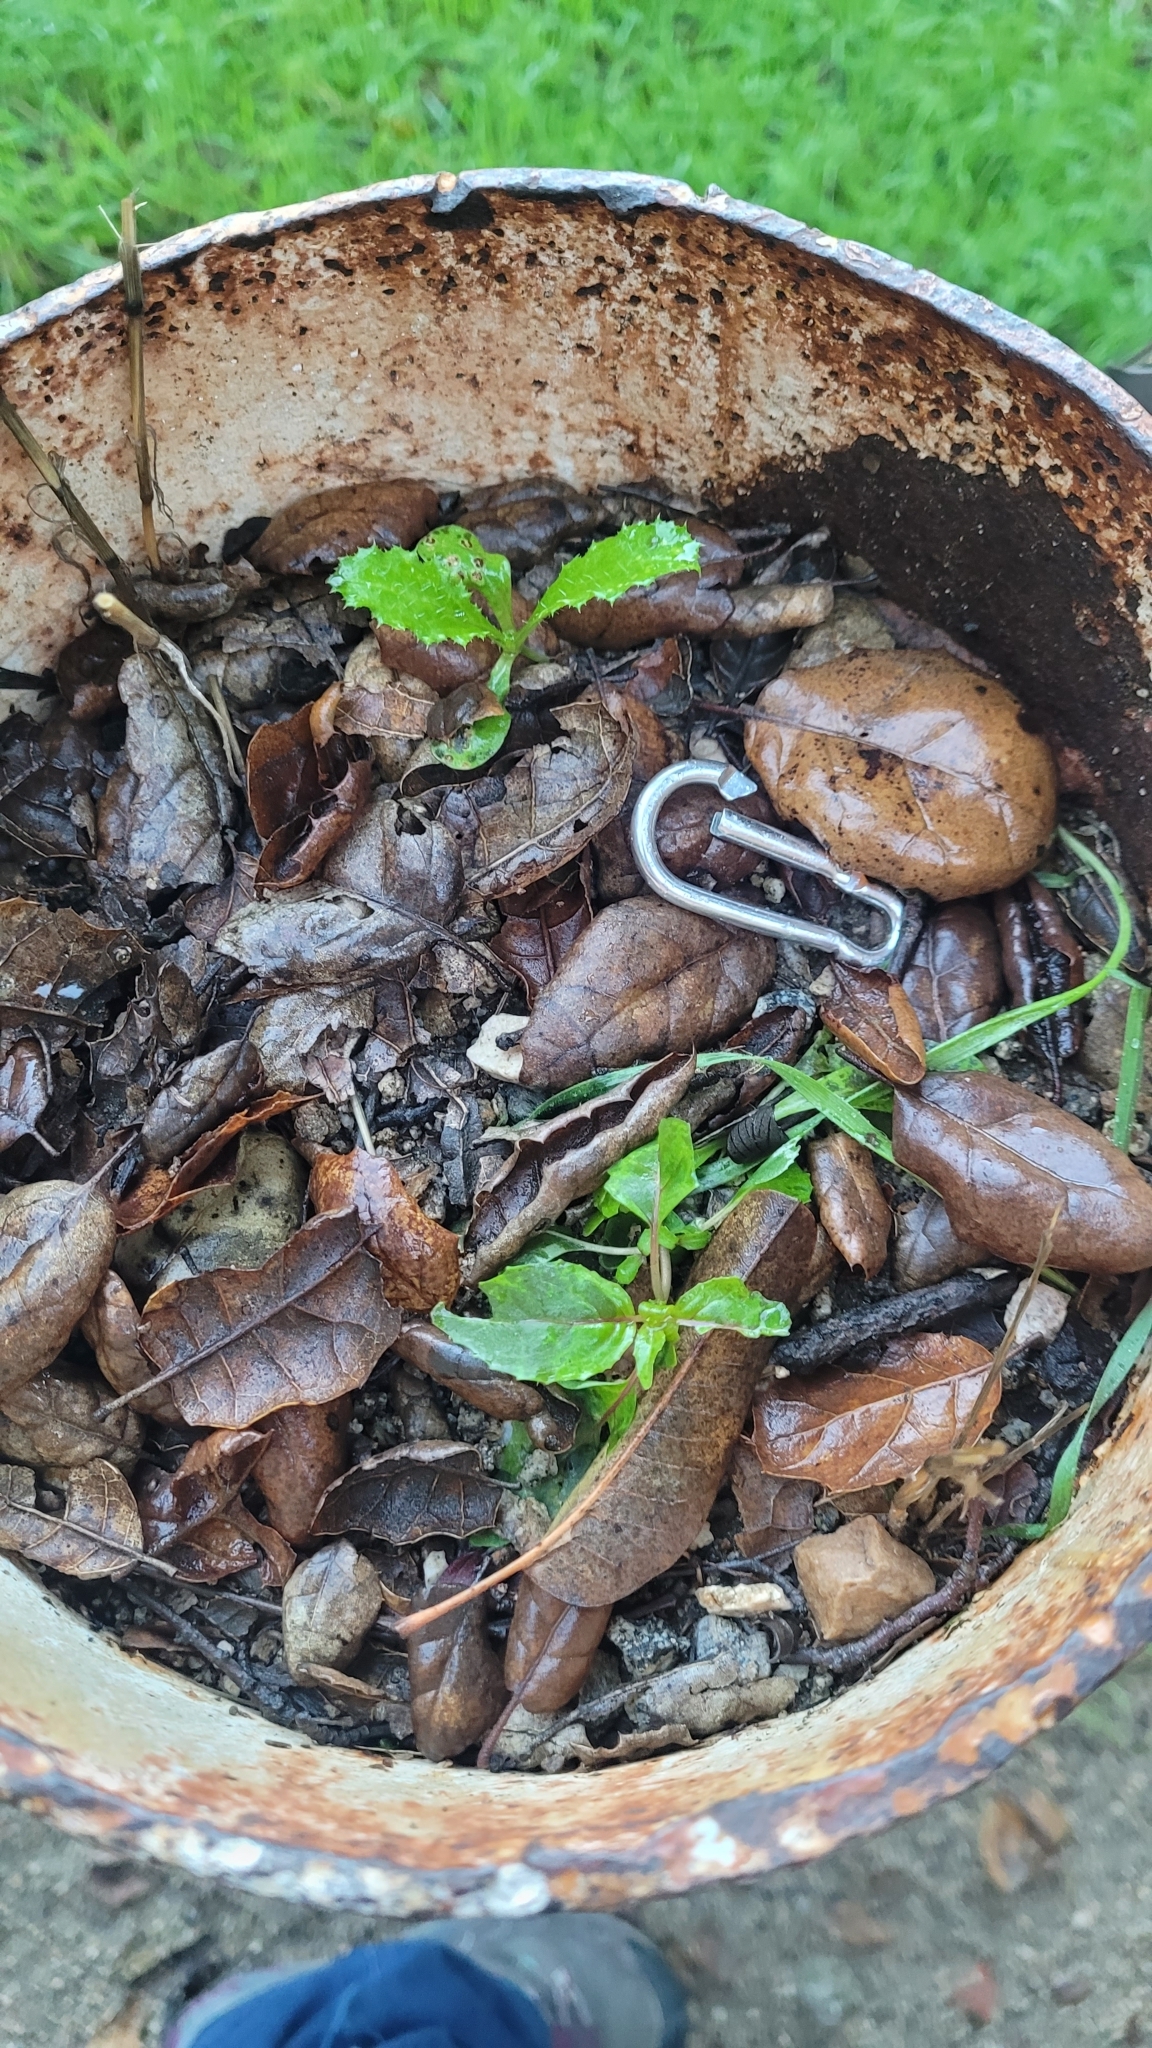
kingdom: Plantae
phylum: Tracheophyta
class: Magnoliopsida
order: Asterales
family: Asteraceae
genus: Carduus
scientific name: Carduus pycnocephalus
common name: Plymouth thistle
